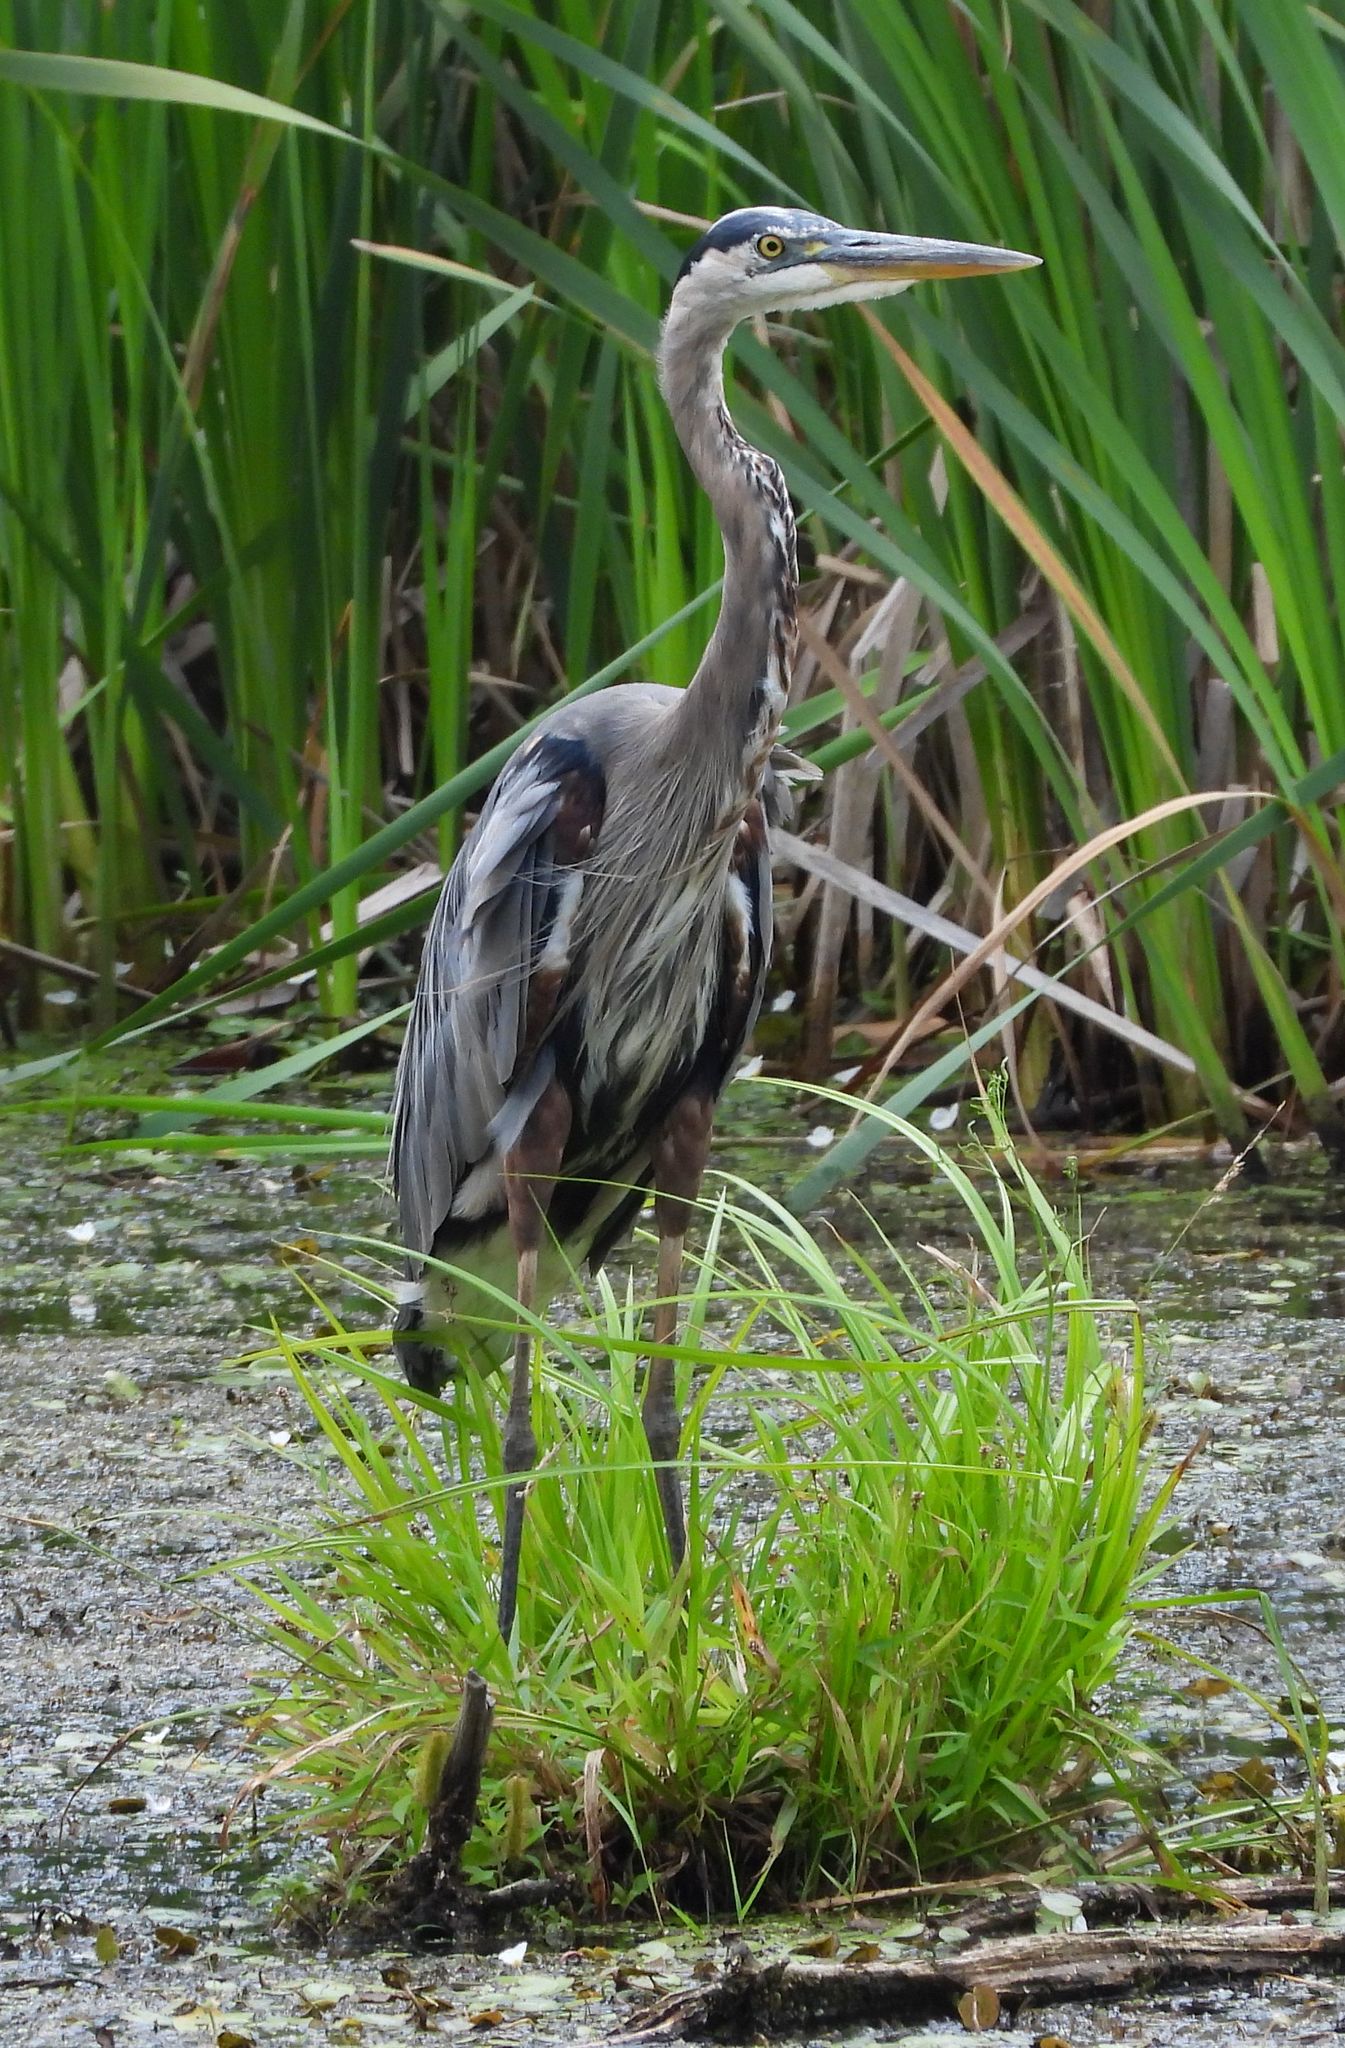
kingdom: Animalia
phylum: Chordata
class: Aves
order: Pelecaniformes
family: Ardeidae
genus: Ardea
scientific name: Ardea herodias
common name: Great blue heron
